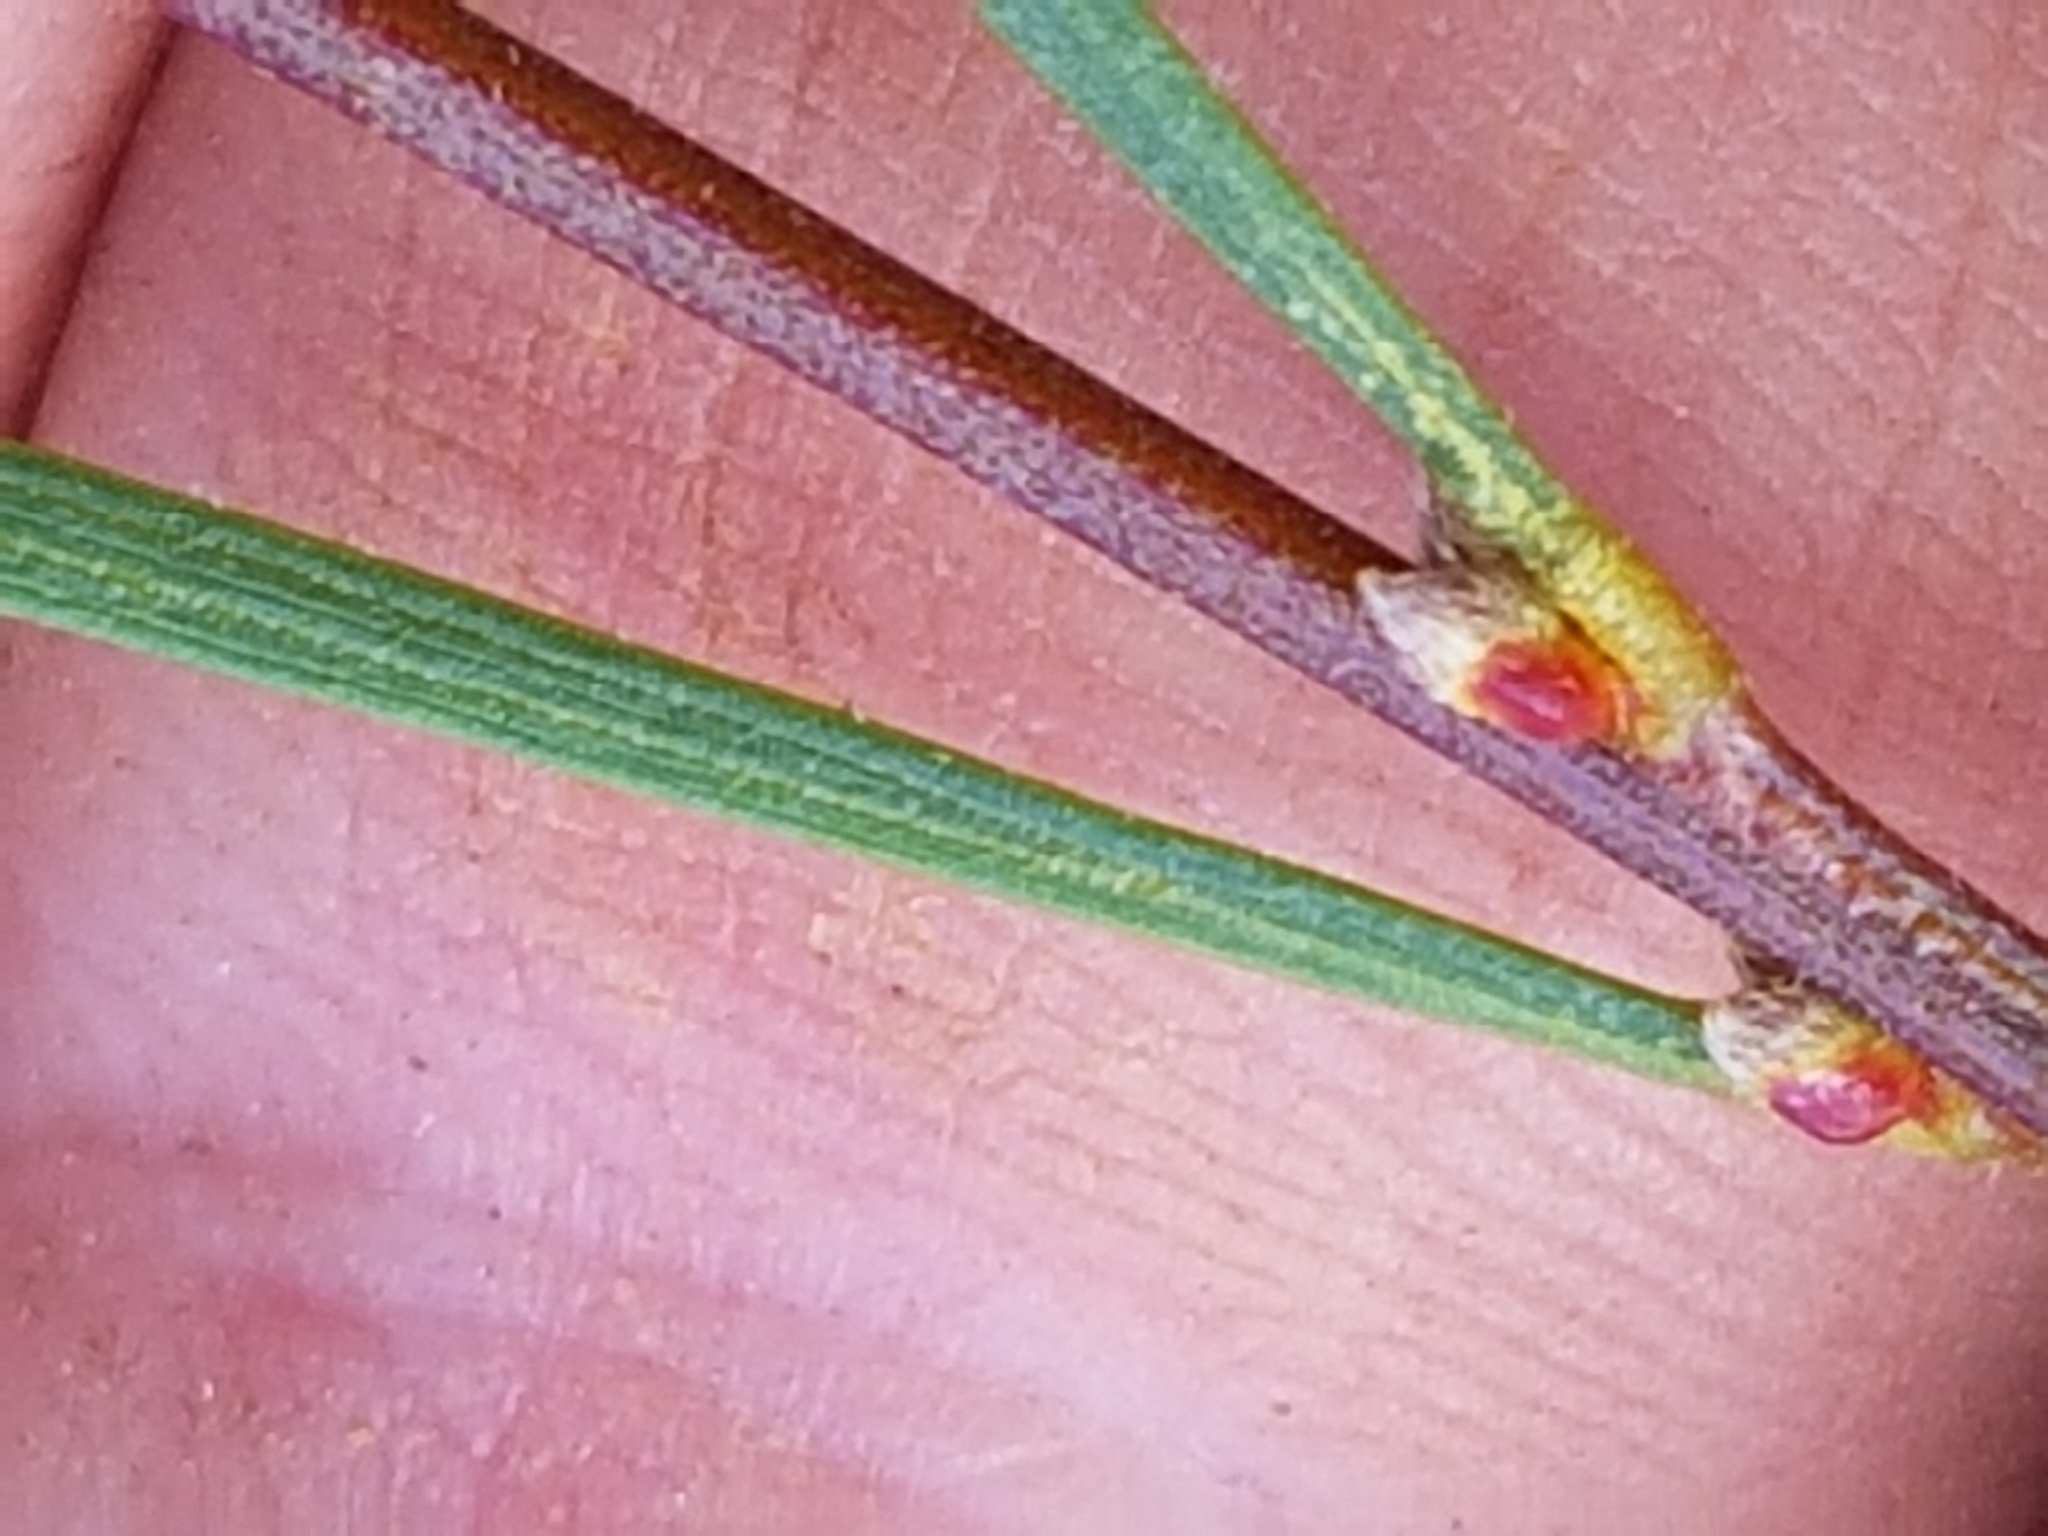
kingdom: Plantae
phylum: Tracheophyta
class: Magnoliopsida
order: Fabales
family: Fabaceae
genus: Acacia
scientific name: Acacia viscidula
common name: Sticky wattle
